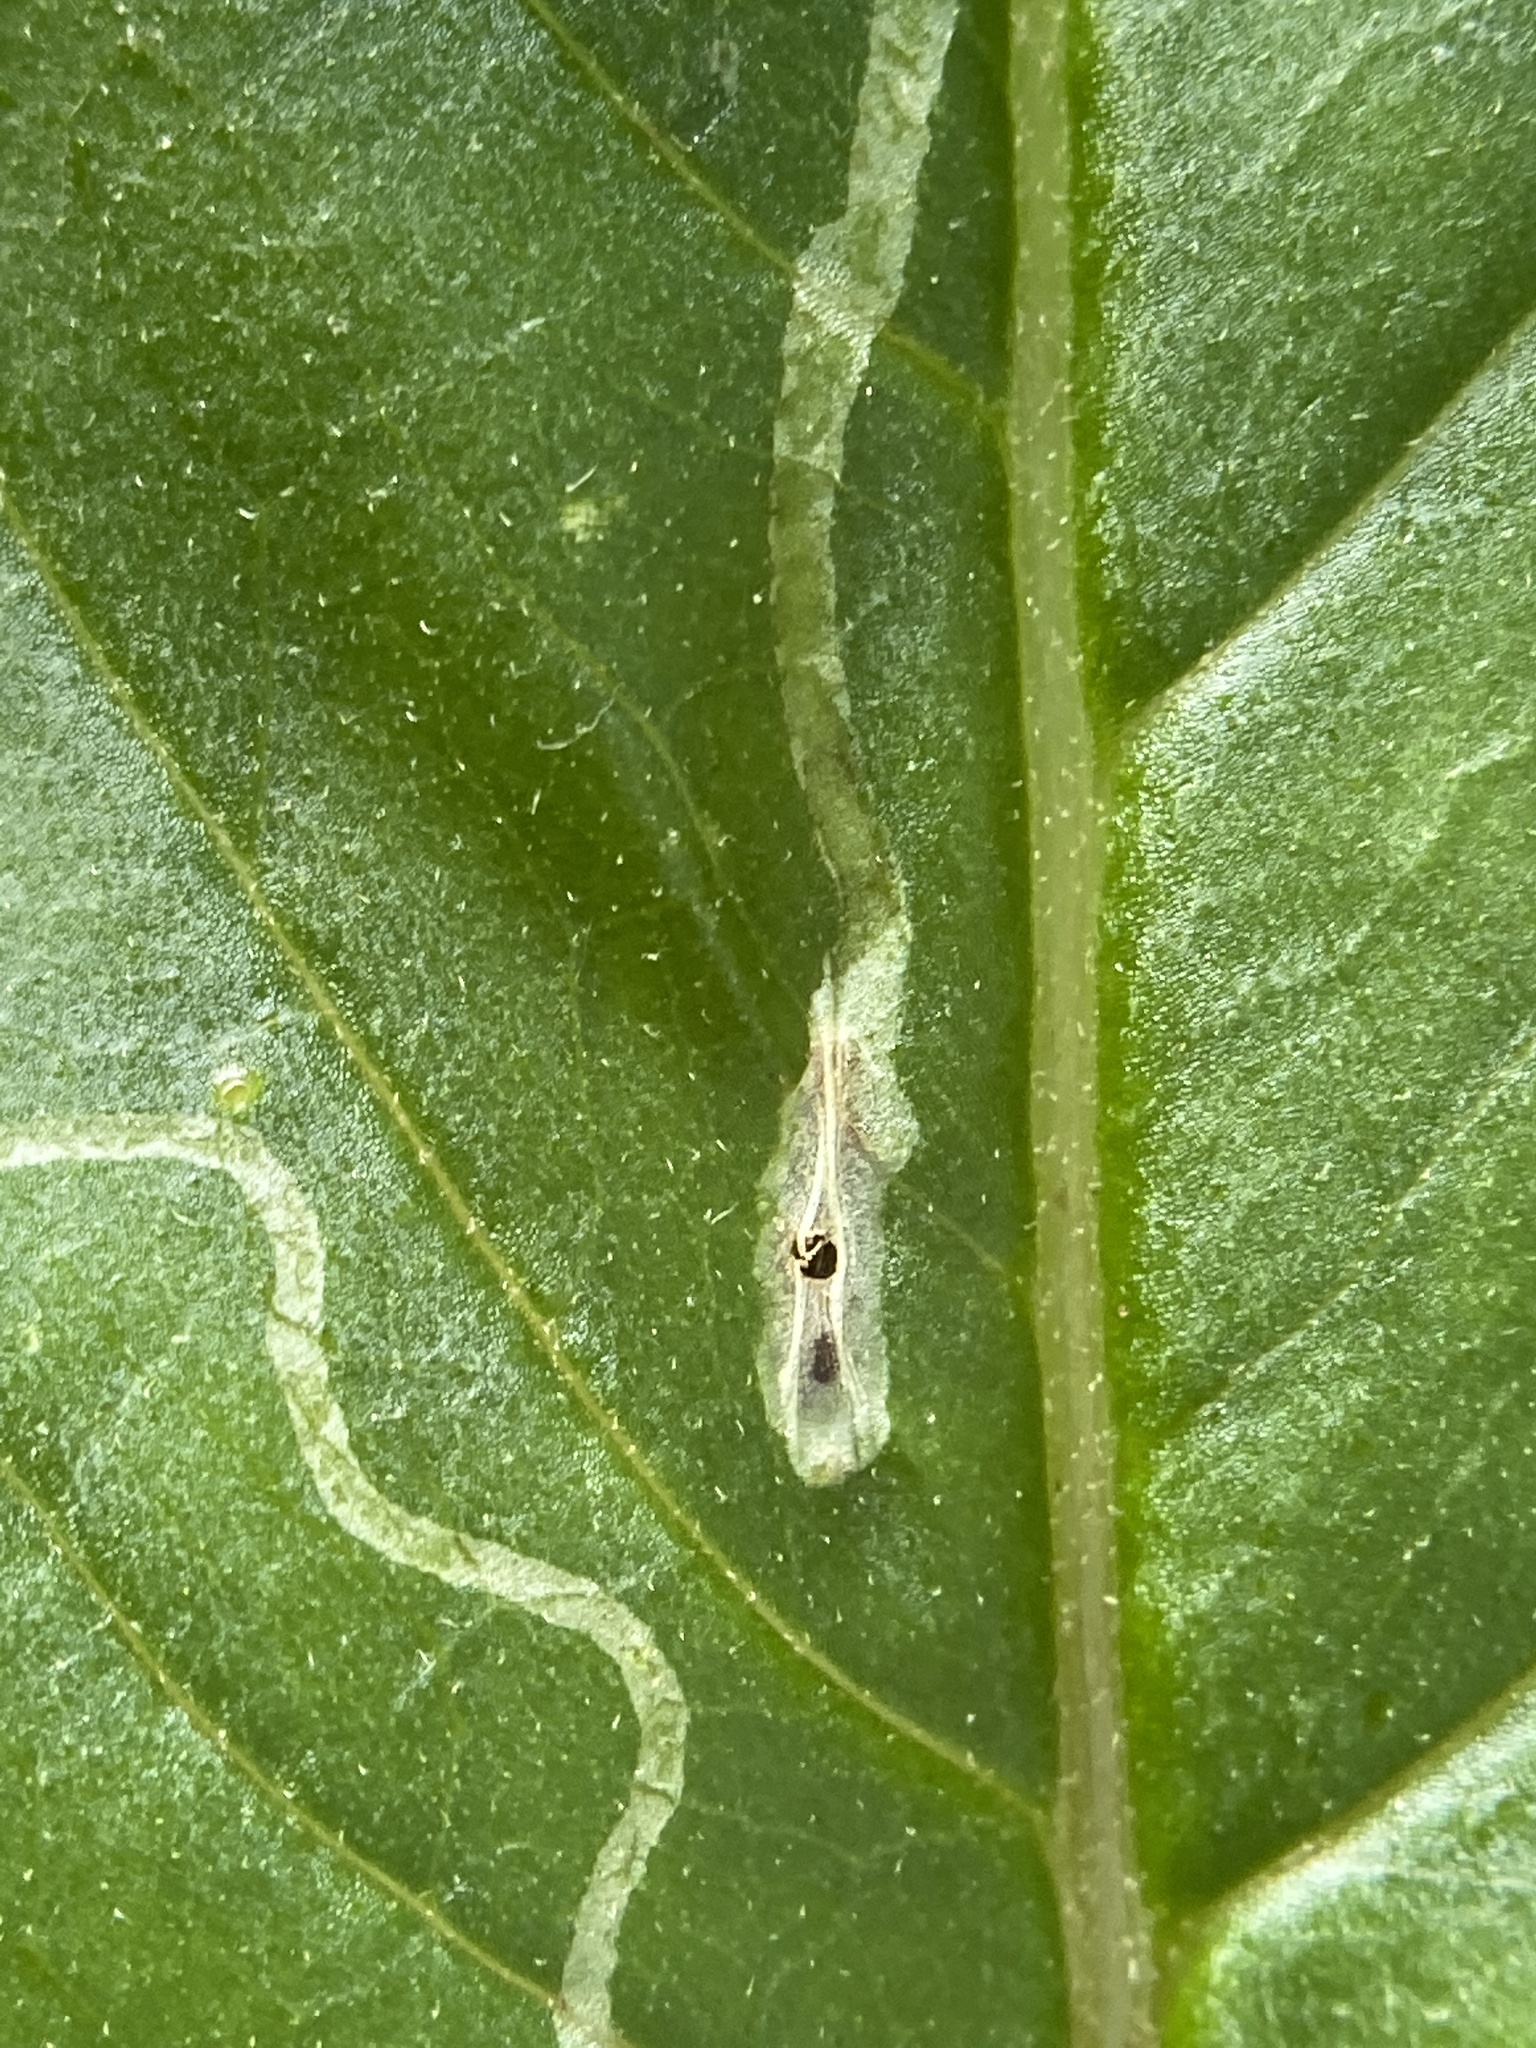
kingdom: Animalia
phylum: Arthropoda
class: Insecta
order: Lepidoptera
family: Gracillariidae
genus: Phyllocnistis
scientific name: Phyllocnistis insignis
